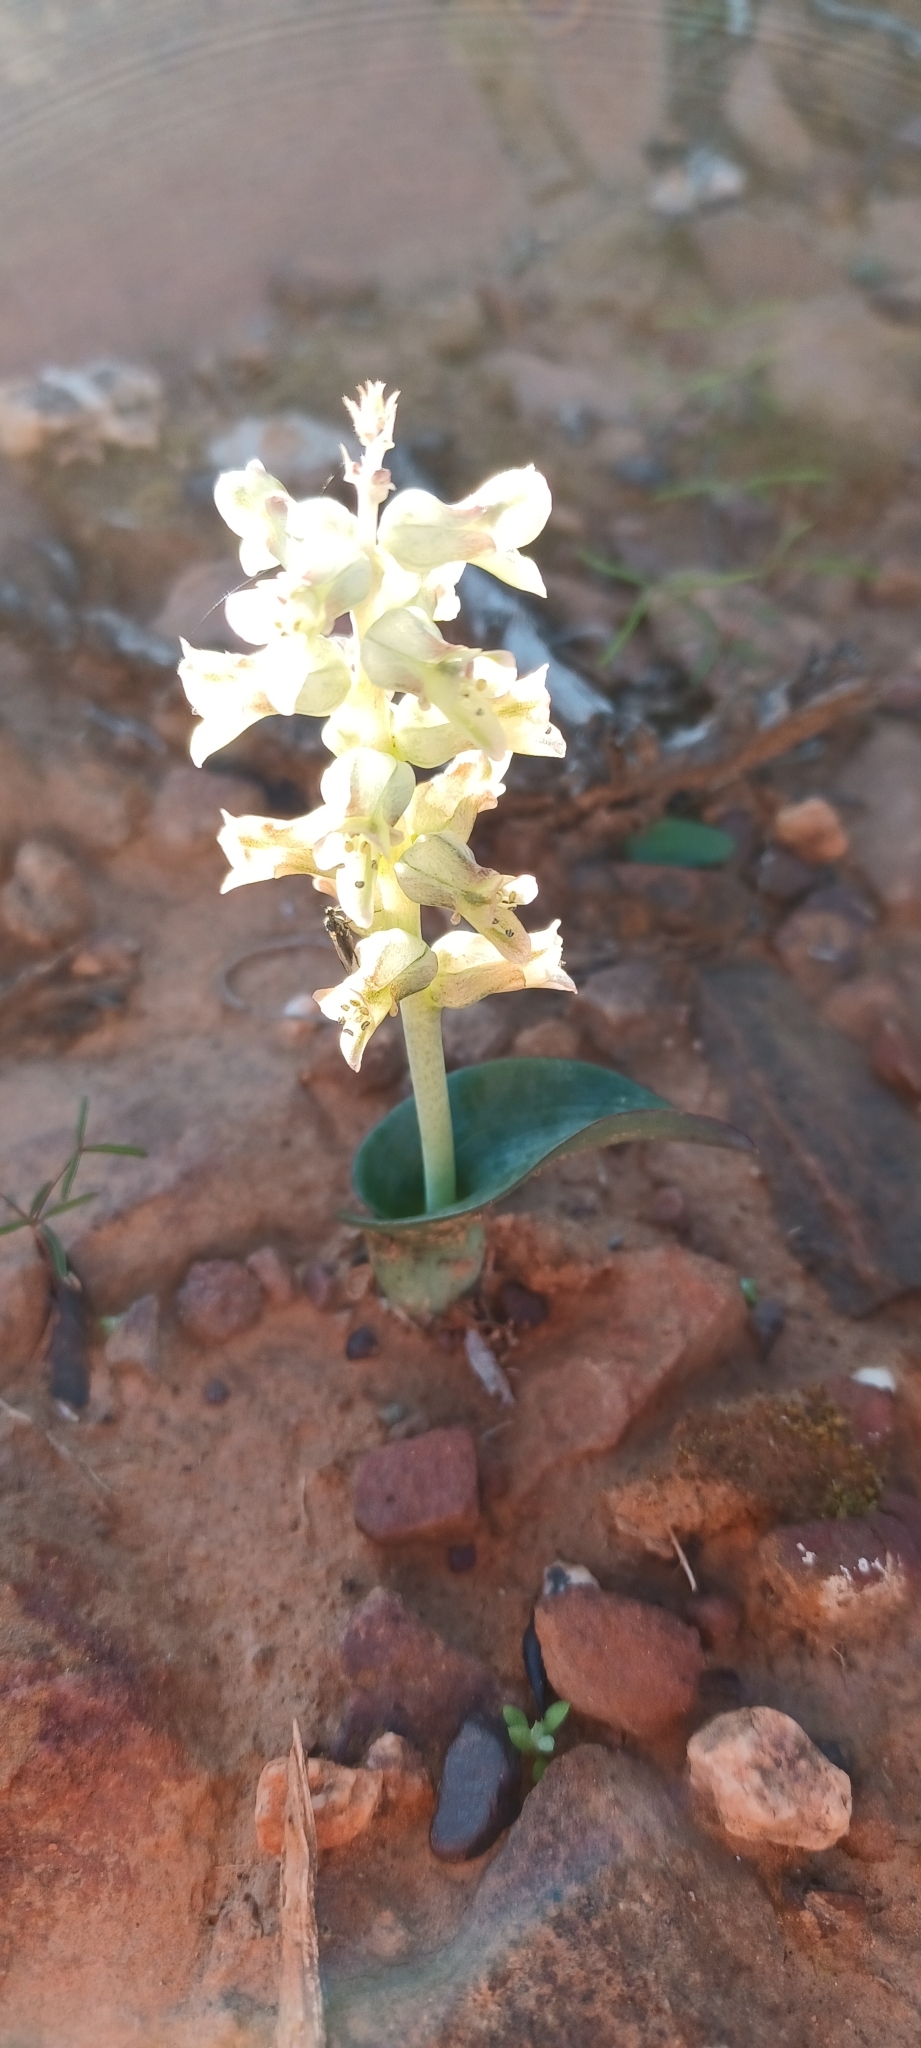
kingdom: Plantae
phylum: Tracheophyta
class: Liliopsida
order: Asparagales
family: Asparagaceae
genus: Lachenalia
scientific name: Lachenalia aurioliae
